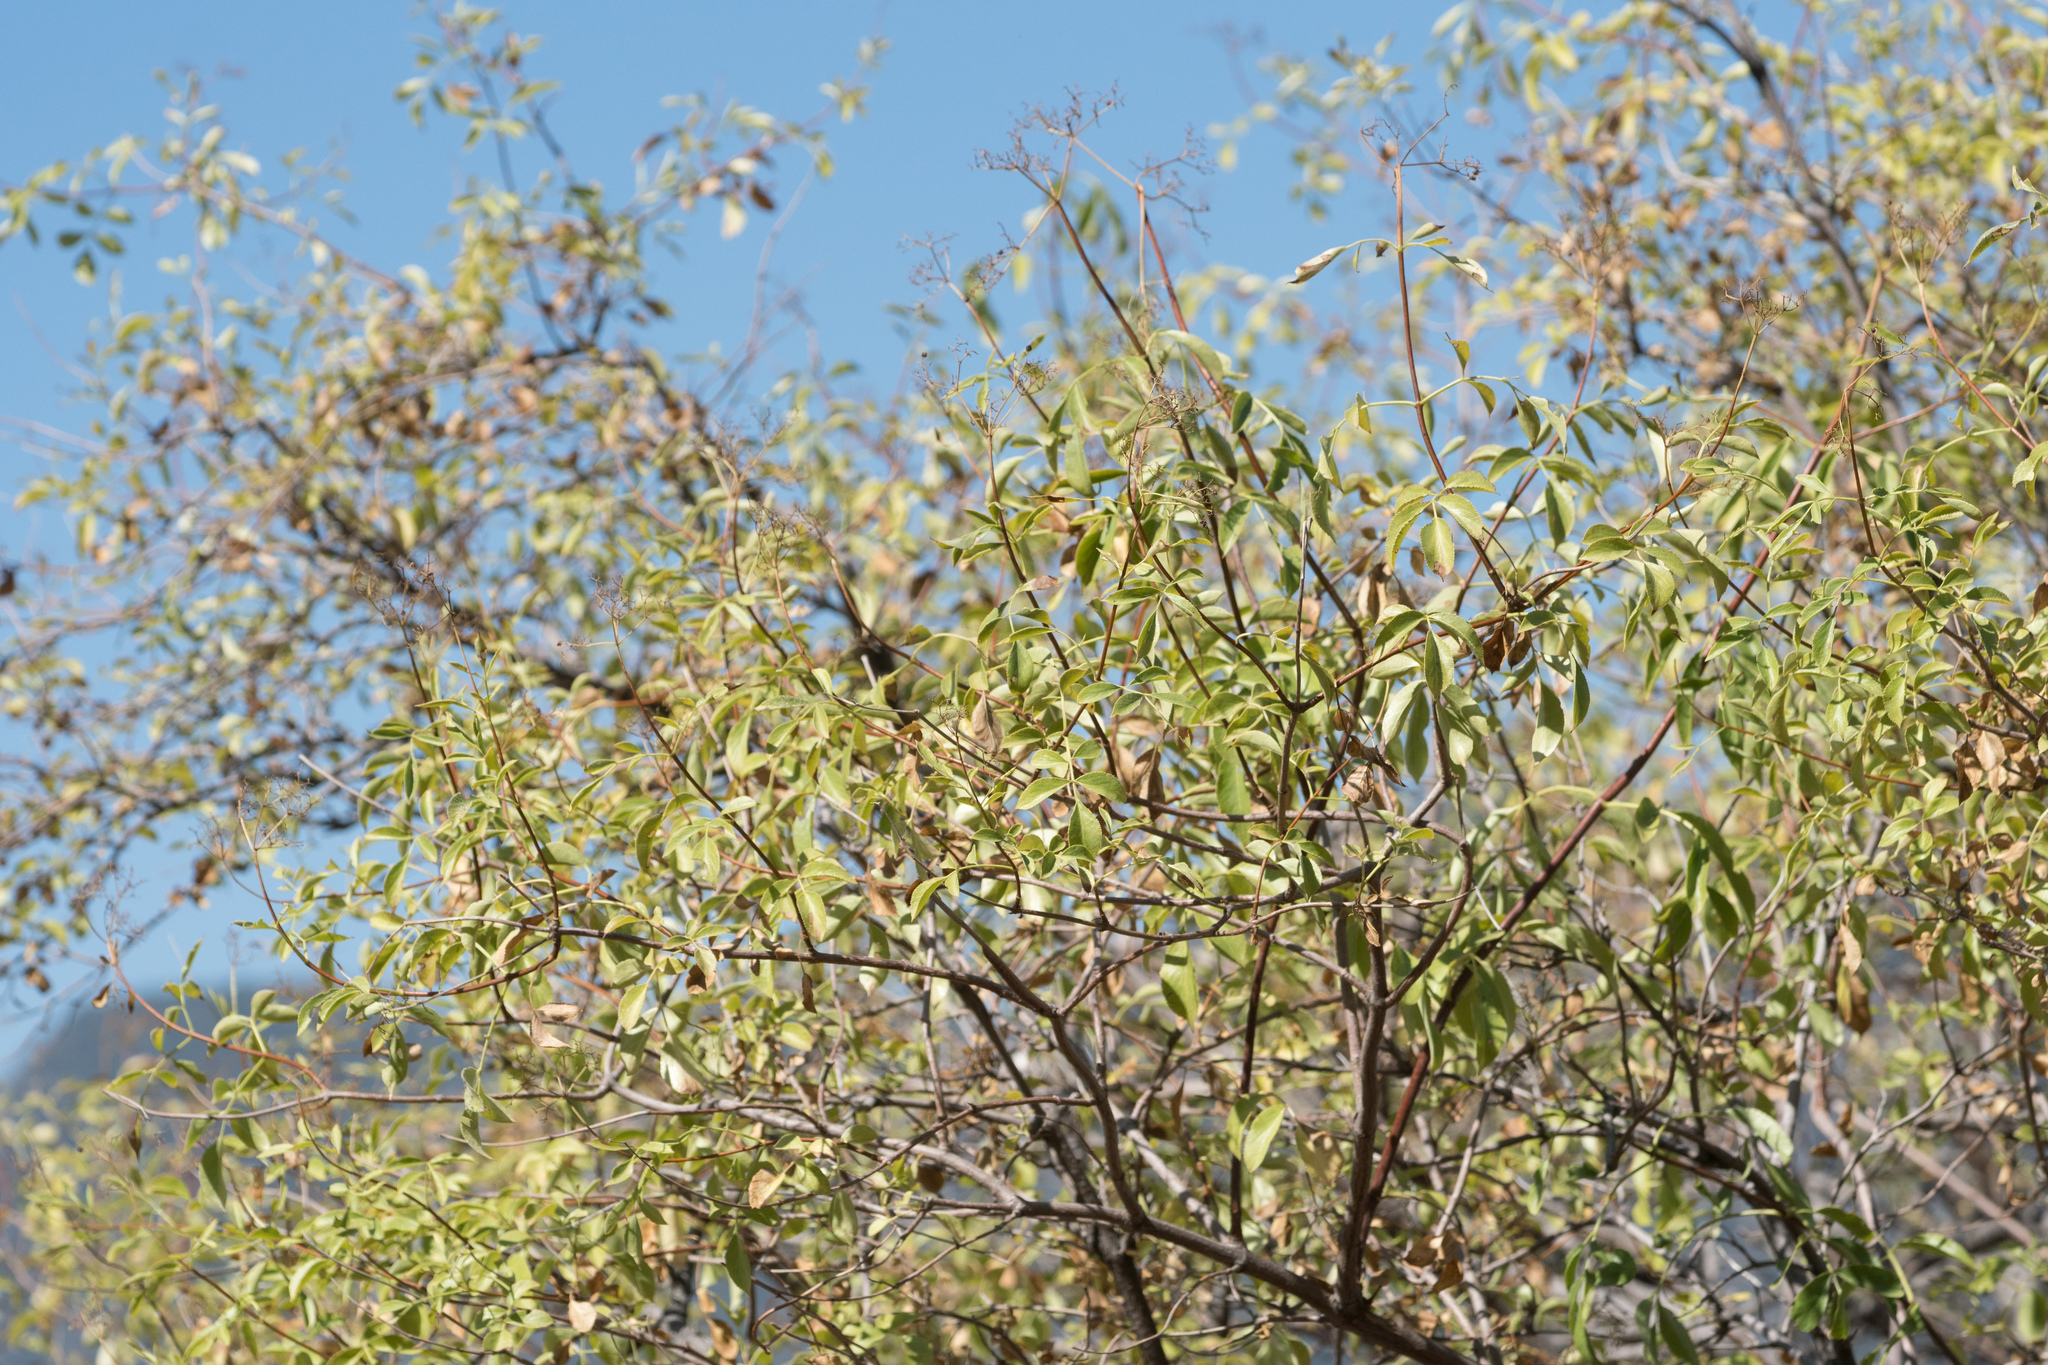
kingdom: Plantae
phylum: Tracheophyta
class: Magnoliopsida
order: Dipsacales
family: Viburnaceae
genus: Sambucus
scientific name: Sambucus cerulea
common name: Blue elder
